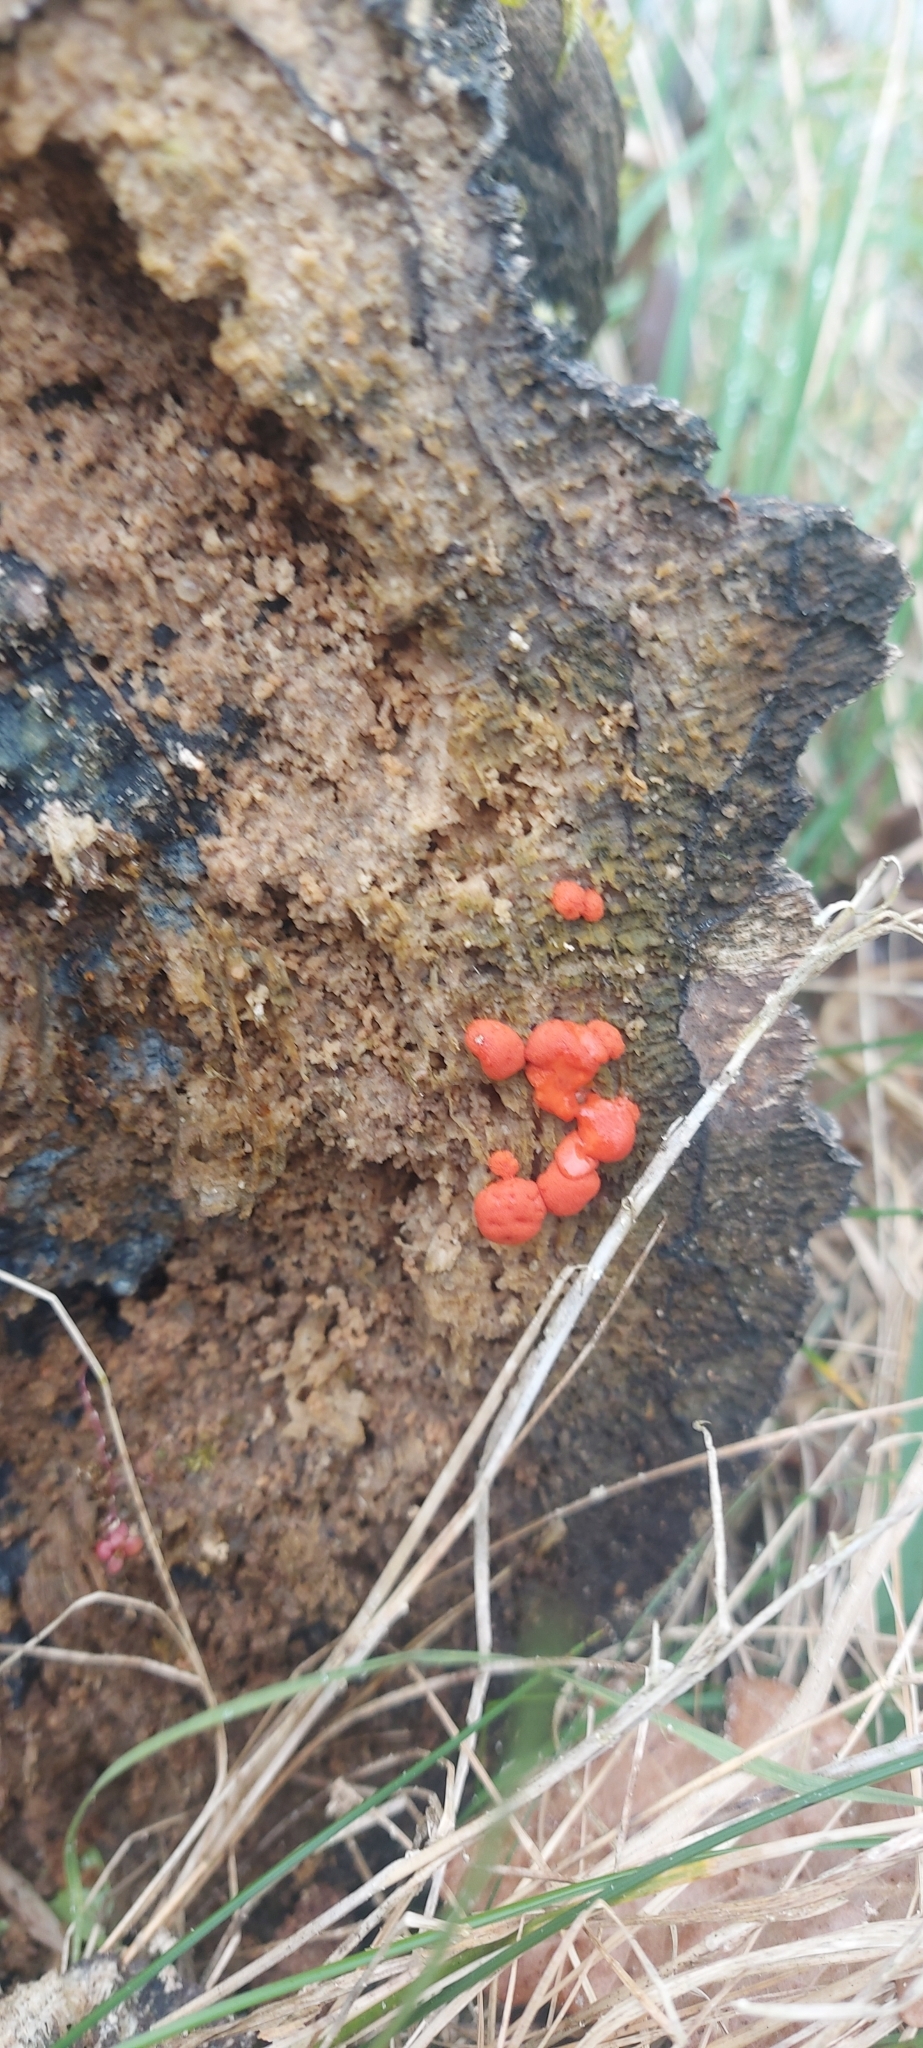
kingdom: Protozoa
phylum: Mycetozoa
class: Myxomycetes
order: Cribrariales
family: Tubiferaceae
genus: Tubifera
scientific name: Tubifera ferruginosa
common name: Red raspberry slime mold
